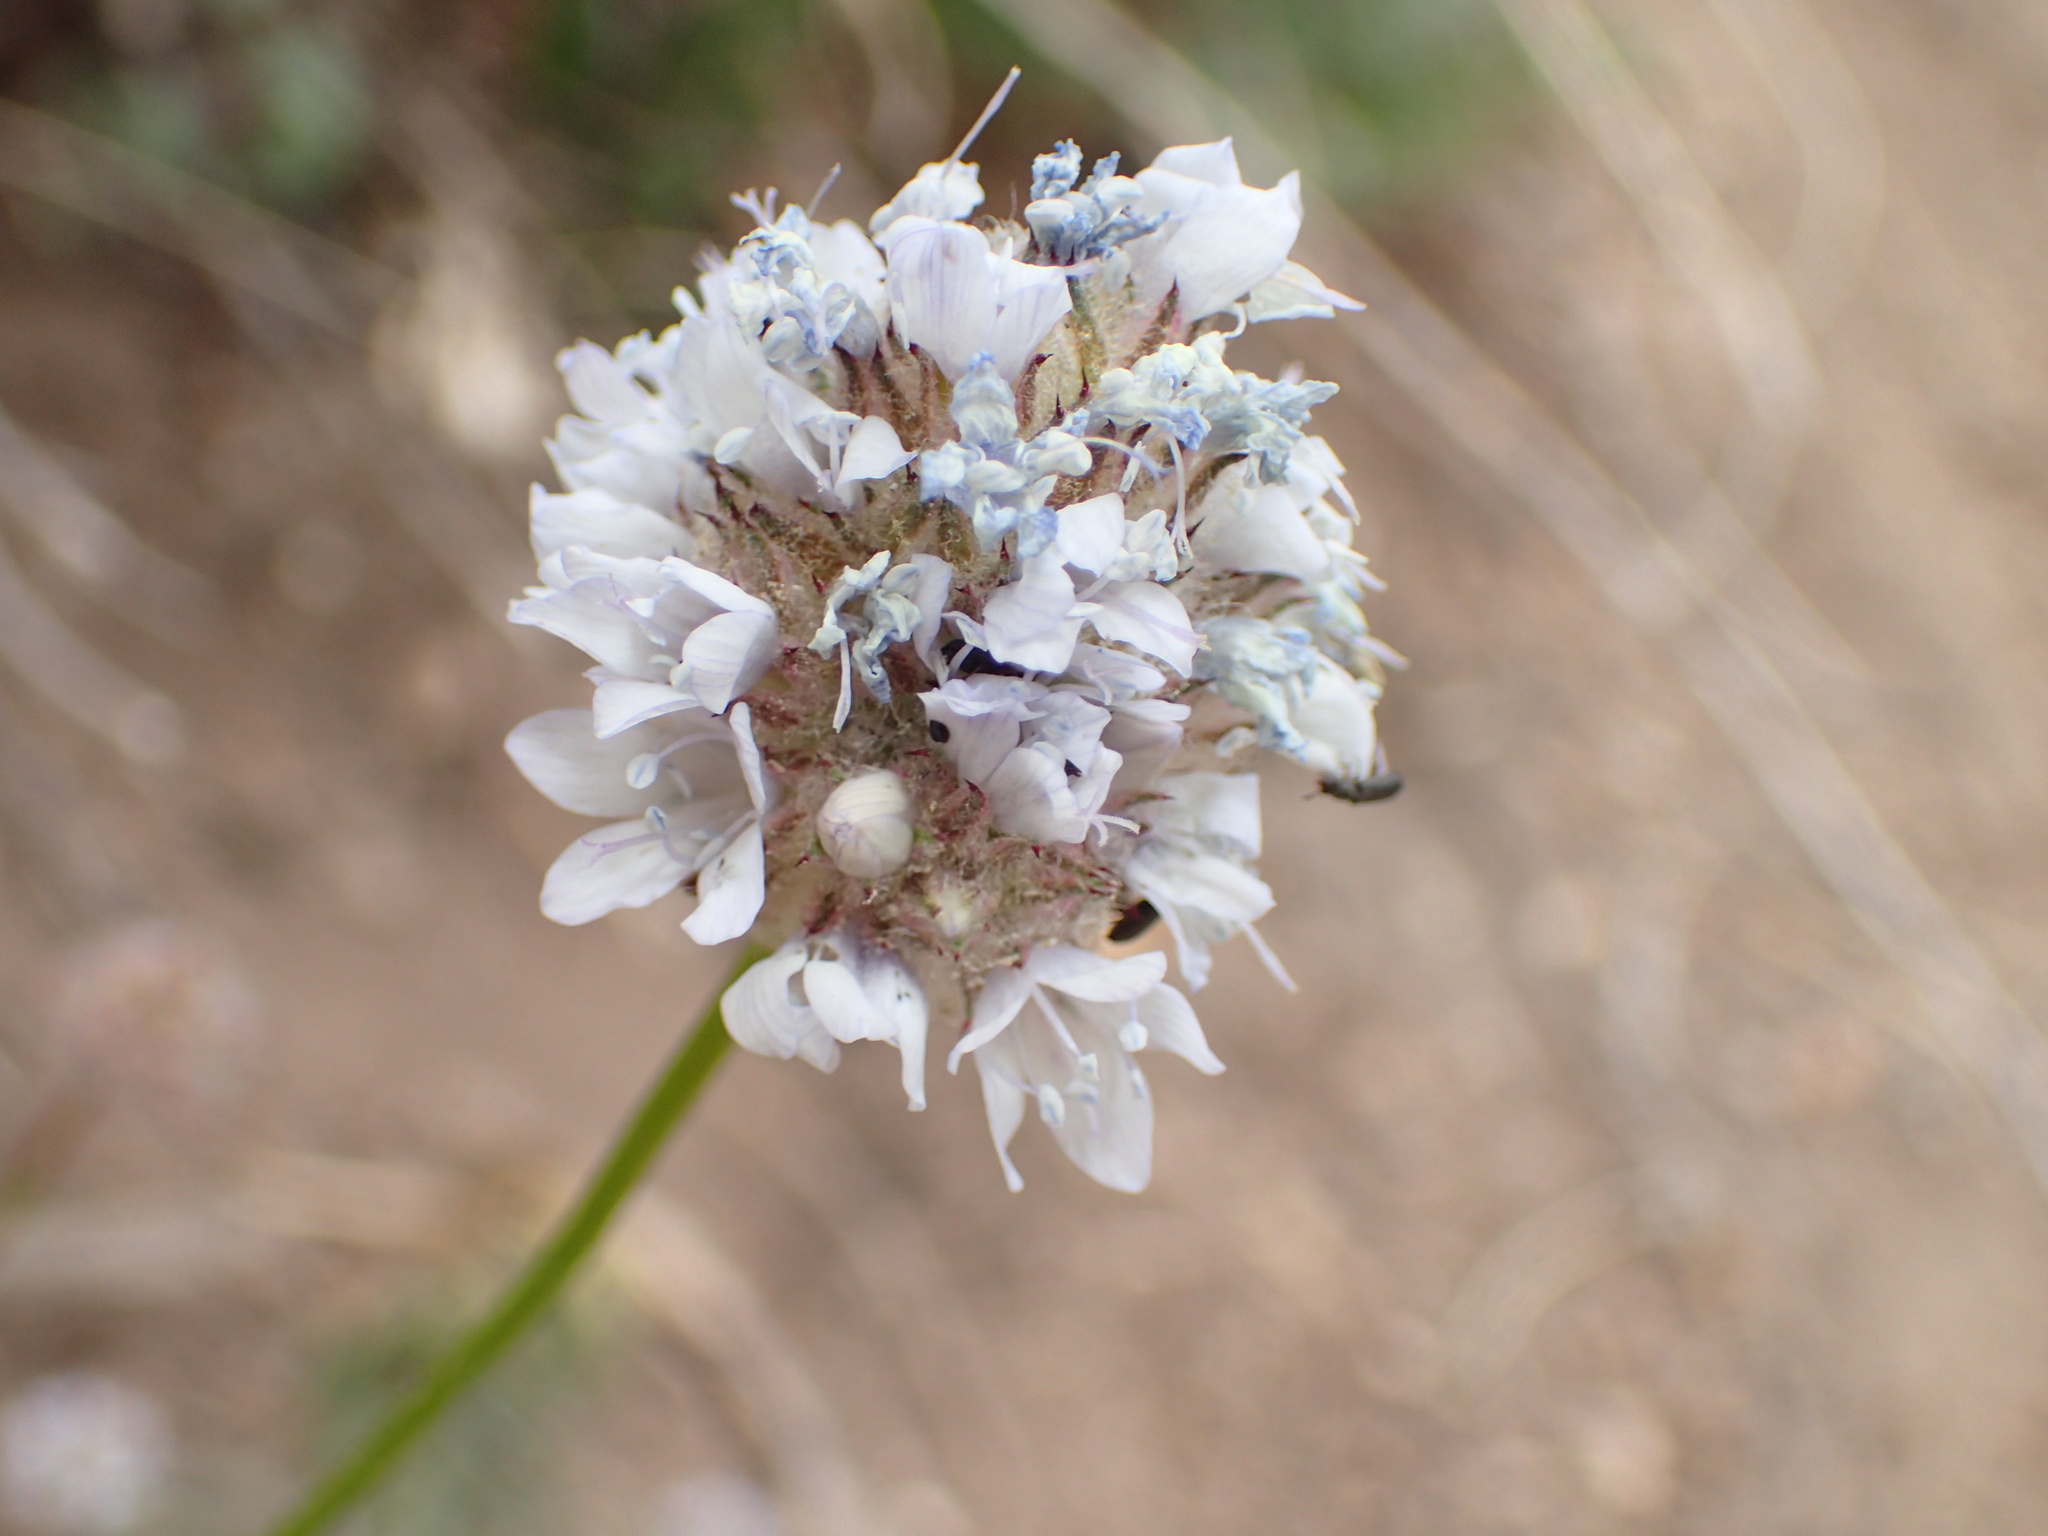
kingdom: Plantae
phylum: Tracheophyta
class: Magnoliopsida
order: Ericales
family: Polemoniaceae
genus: Gilia
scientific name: Gilia capitata
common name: Bluehead gilia
